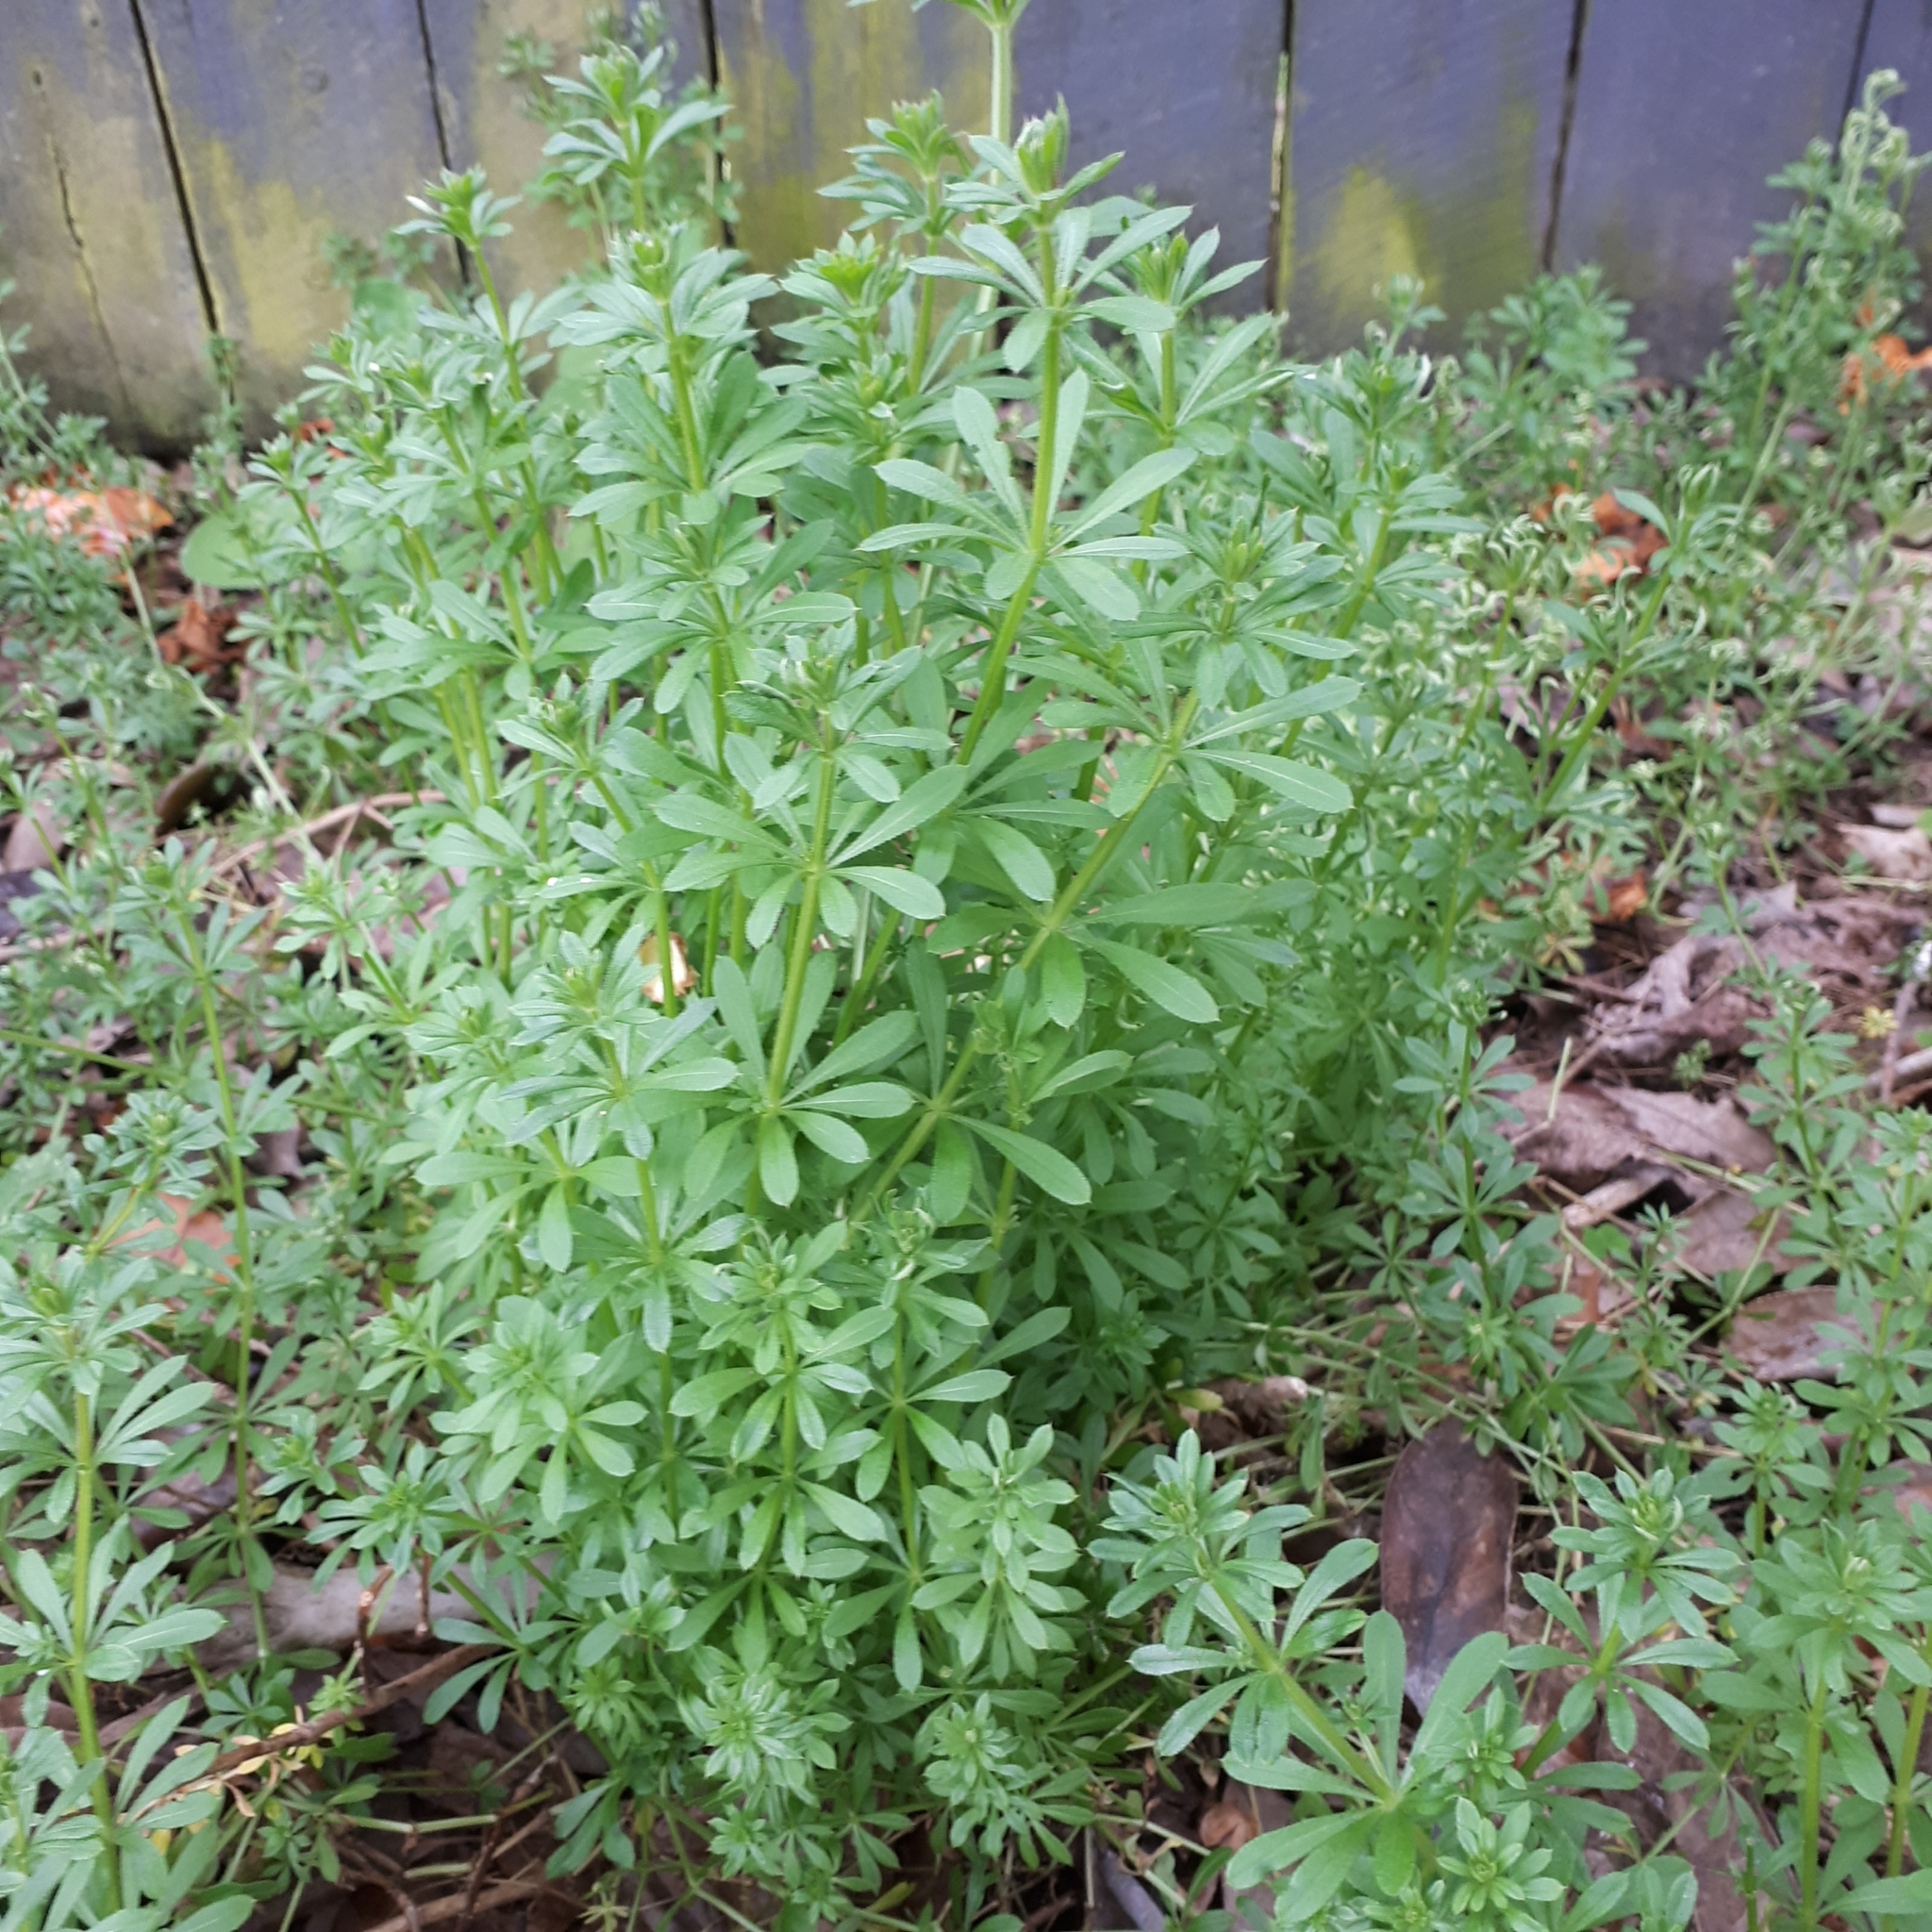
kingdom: Plantae
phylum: Tracheophyta
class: Magnoliopsida
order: Gentianales
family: Rubiaceae
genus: Galium
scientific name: Galium aparine
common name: Cleavers
